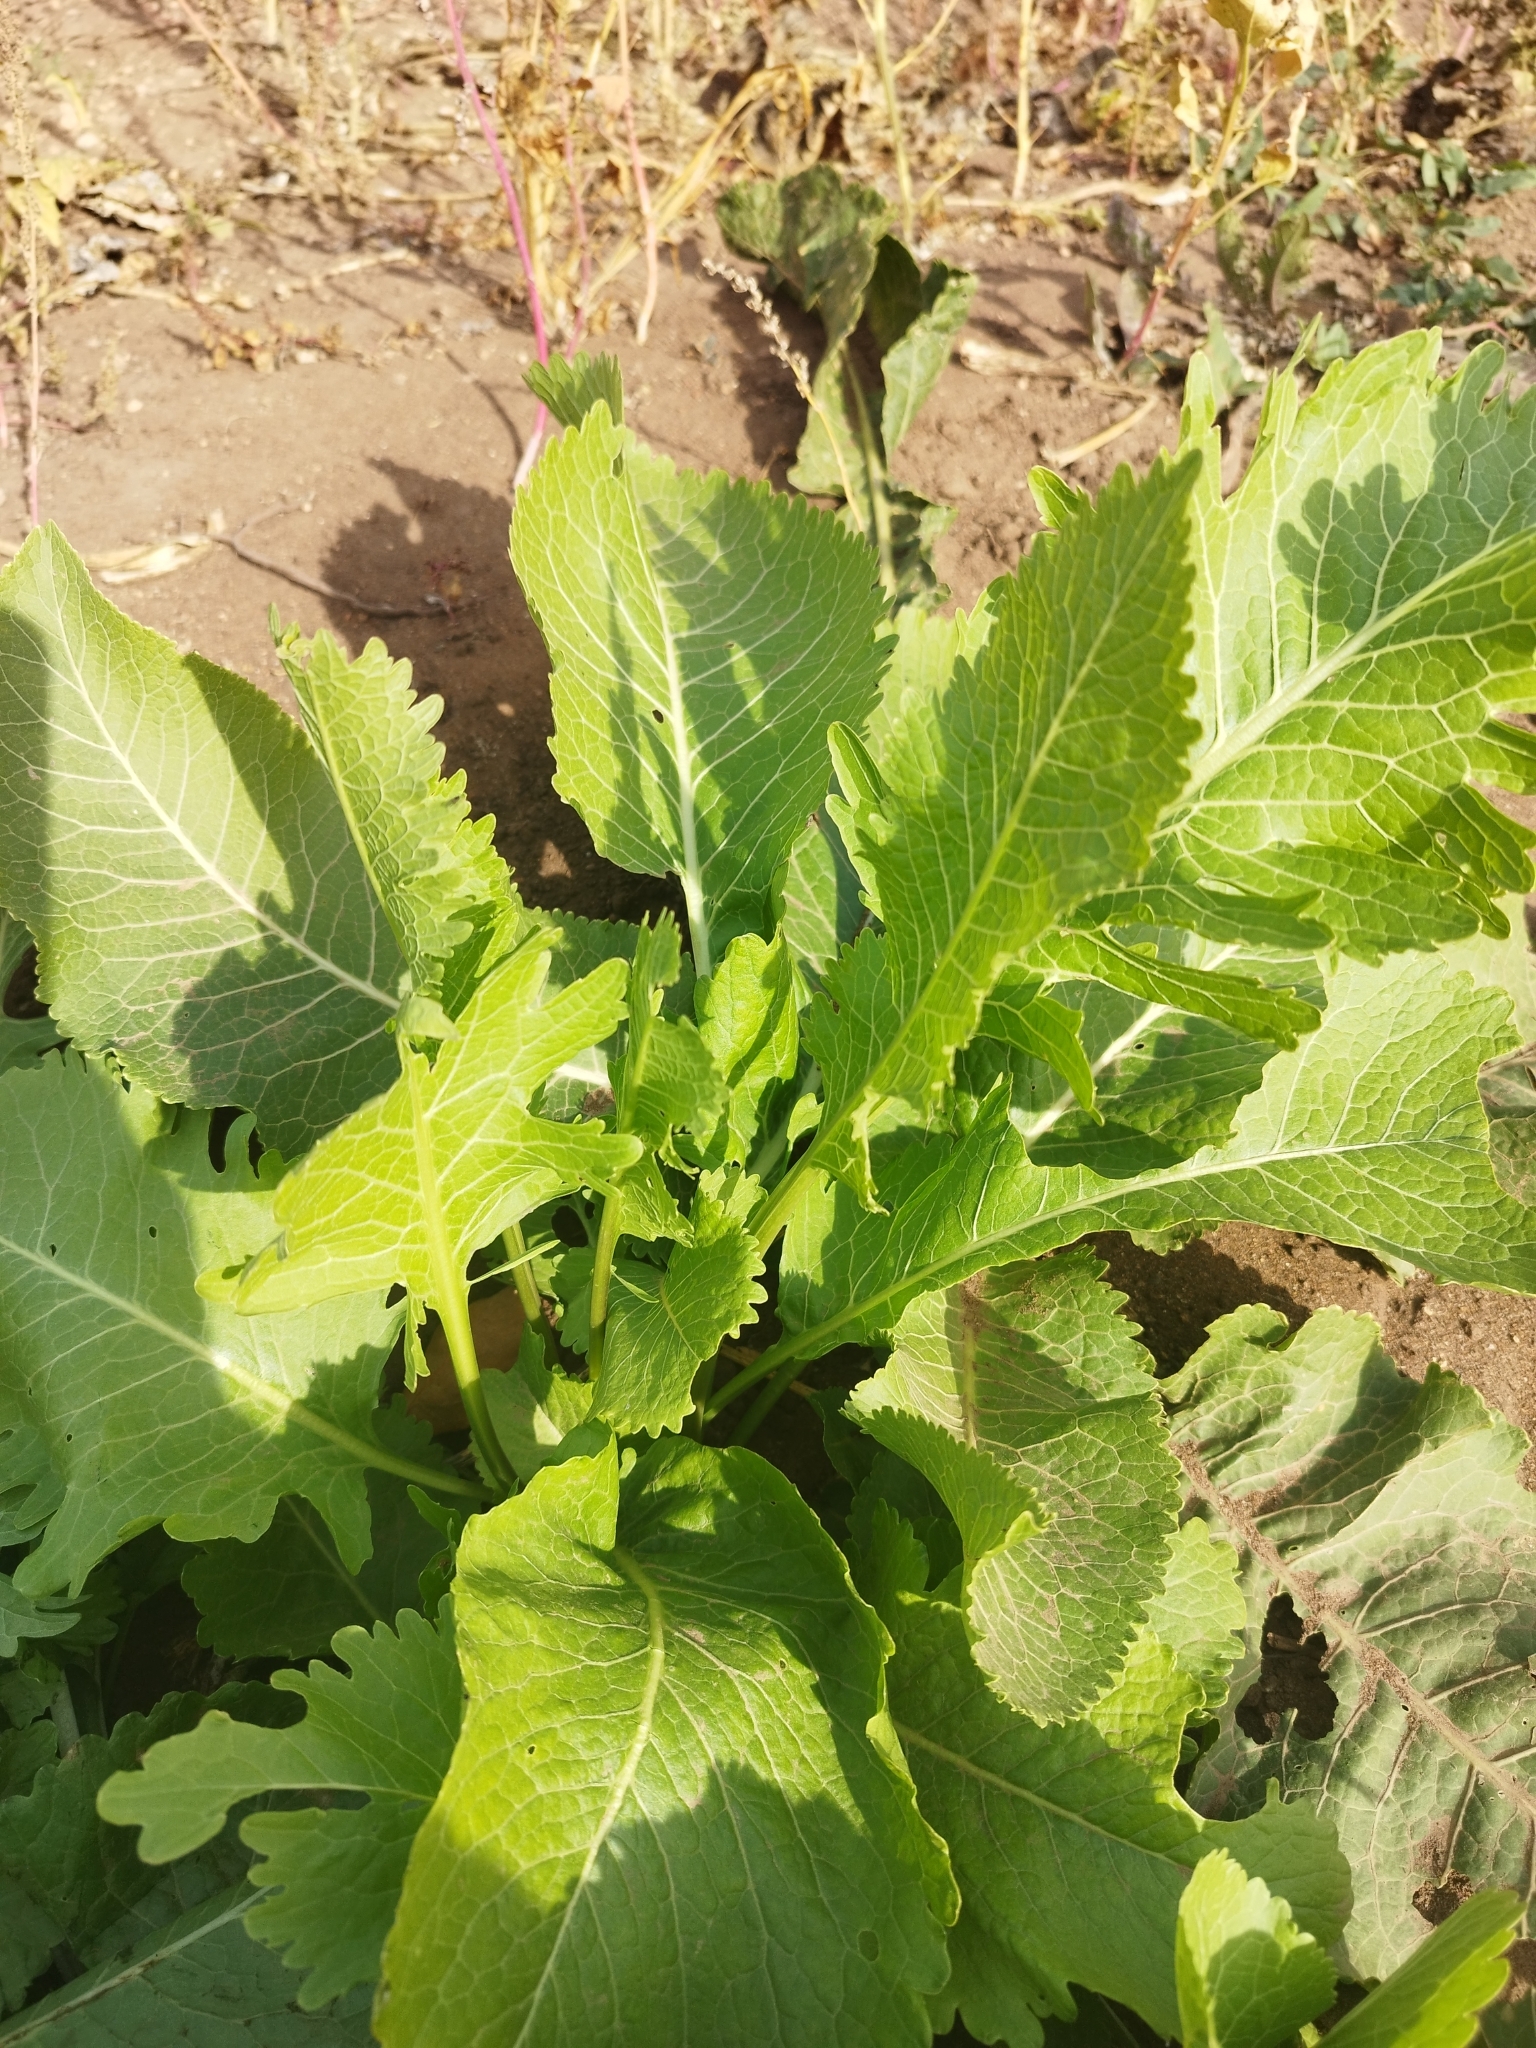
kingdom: Plantae
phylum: Tracheophyta
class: Magnoliopsida
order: Brassicales
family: Brassicaceae
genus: Armoracia
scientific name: Armoracia rusticana
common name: Horseradish
